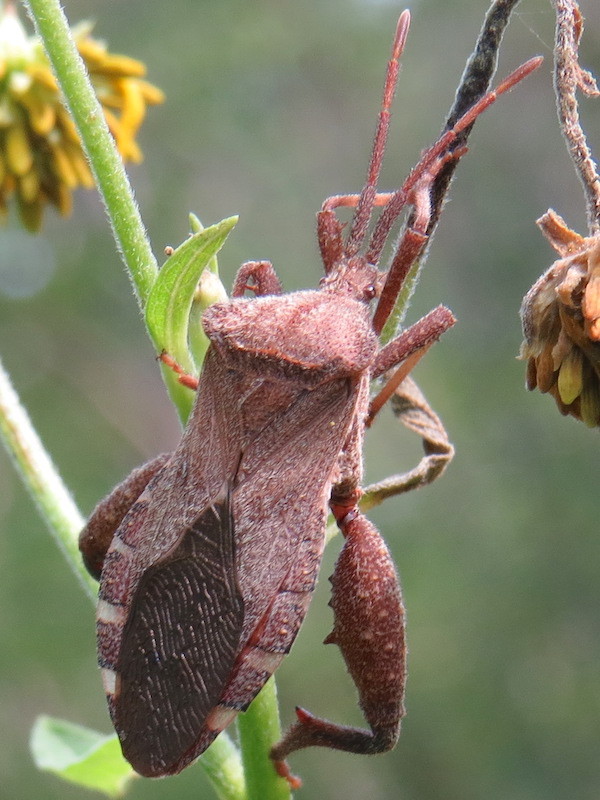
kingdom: Animalia
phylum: Arthropoda
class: Insecta
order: Hemiptera
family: Coreidae
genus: Piezogaster
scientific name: Piezogaster calcarator
